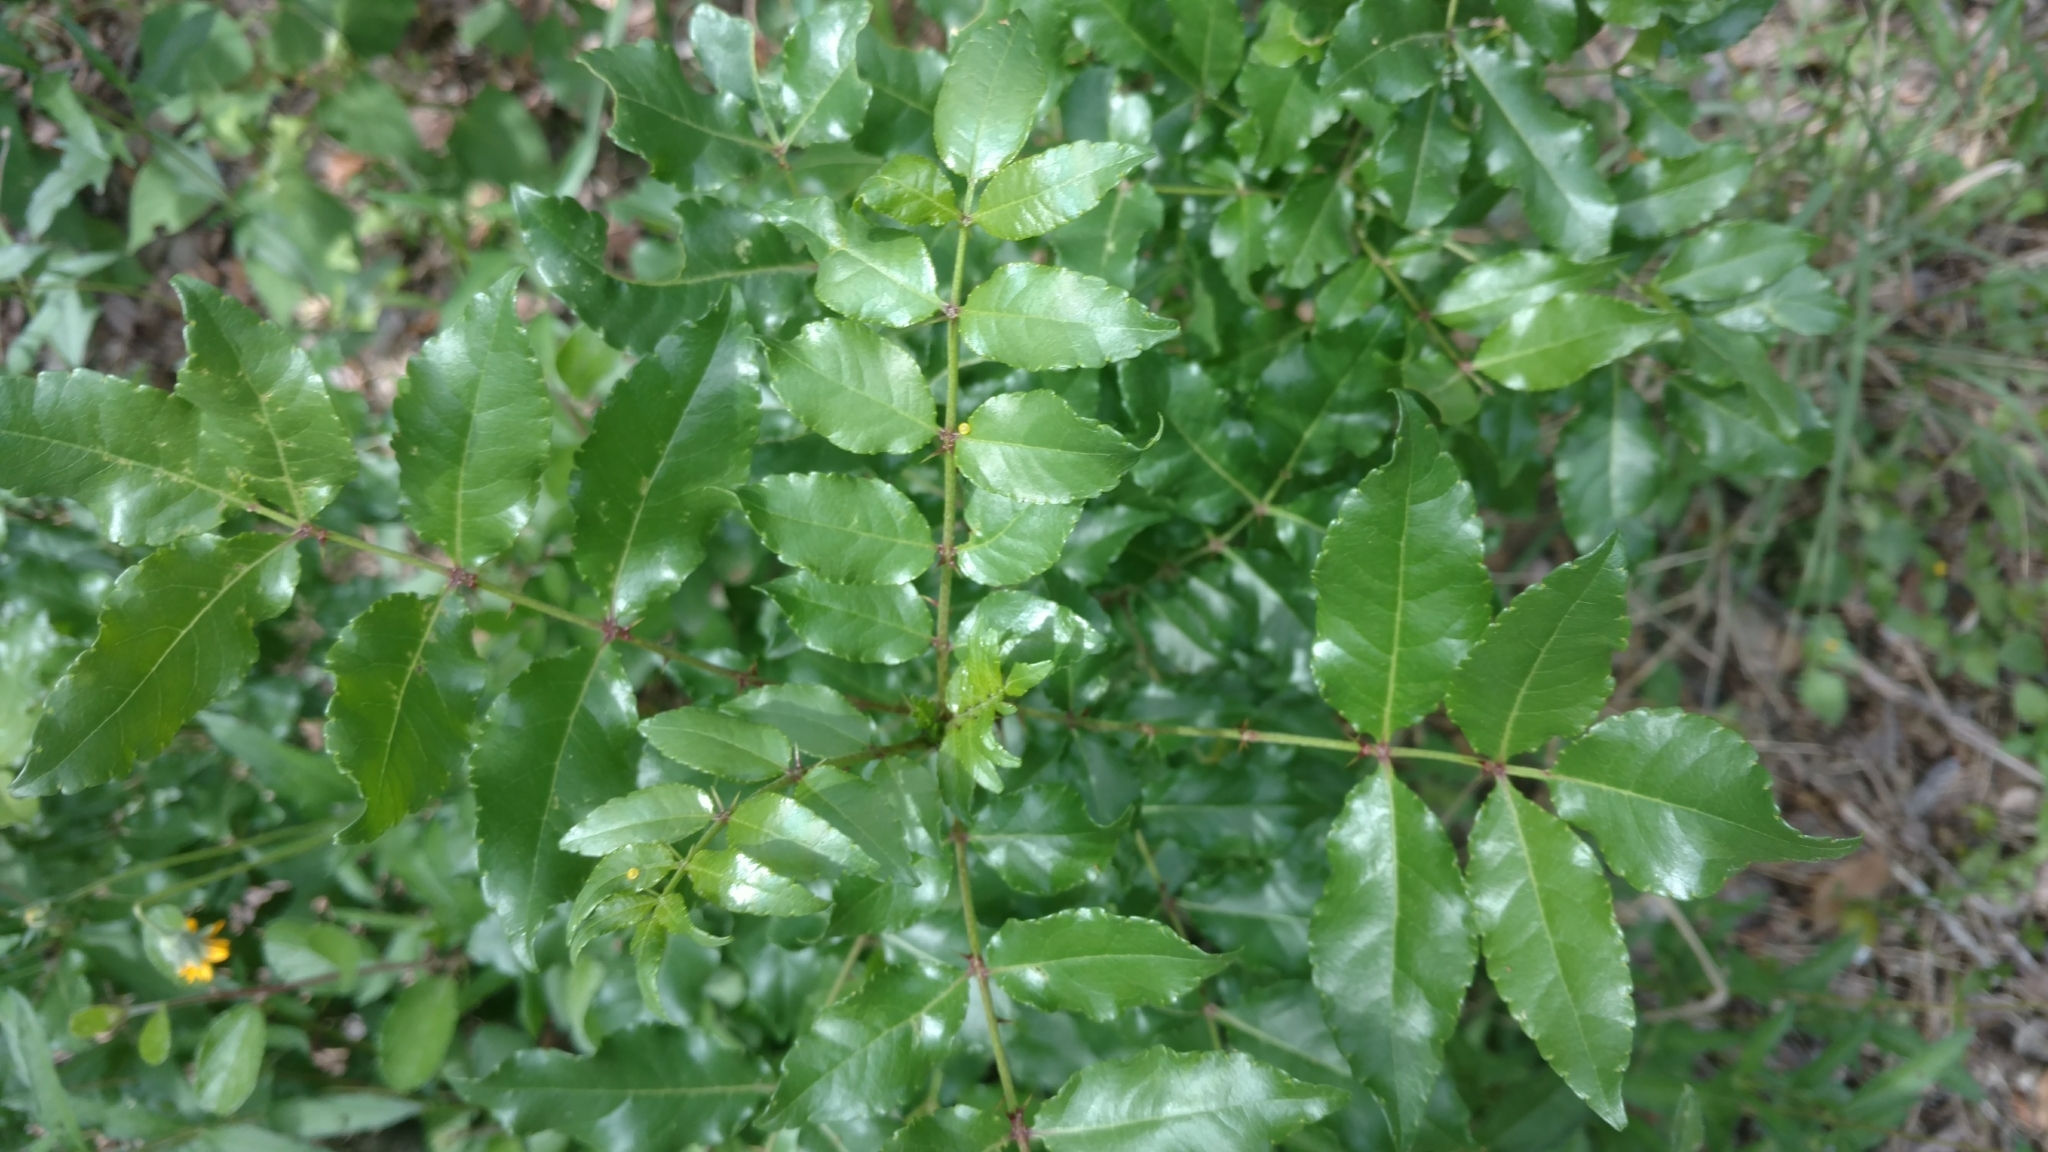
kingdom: Plantae
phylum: Tracheophyta
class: Magnoliopsida
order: Sapindales
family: Rutaceae
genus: Zanthoxylum
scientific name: Zanthoxylum clava-herculis
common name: Hercules'-club
